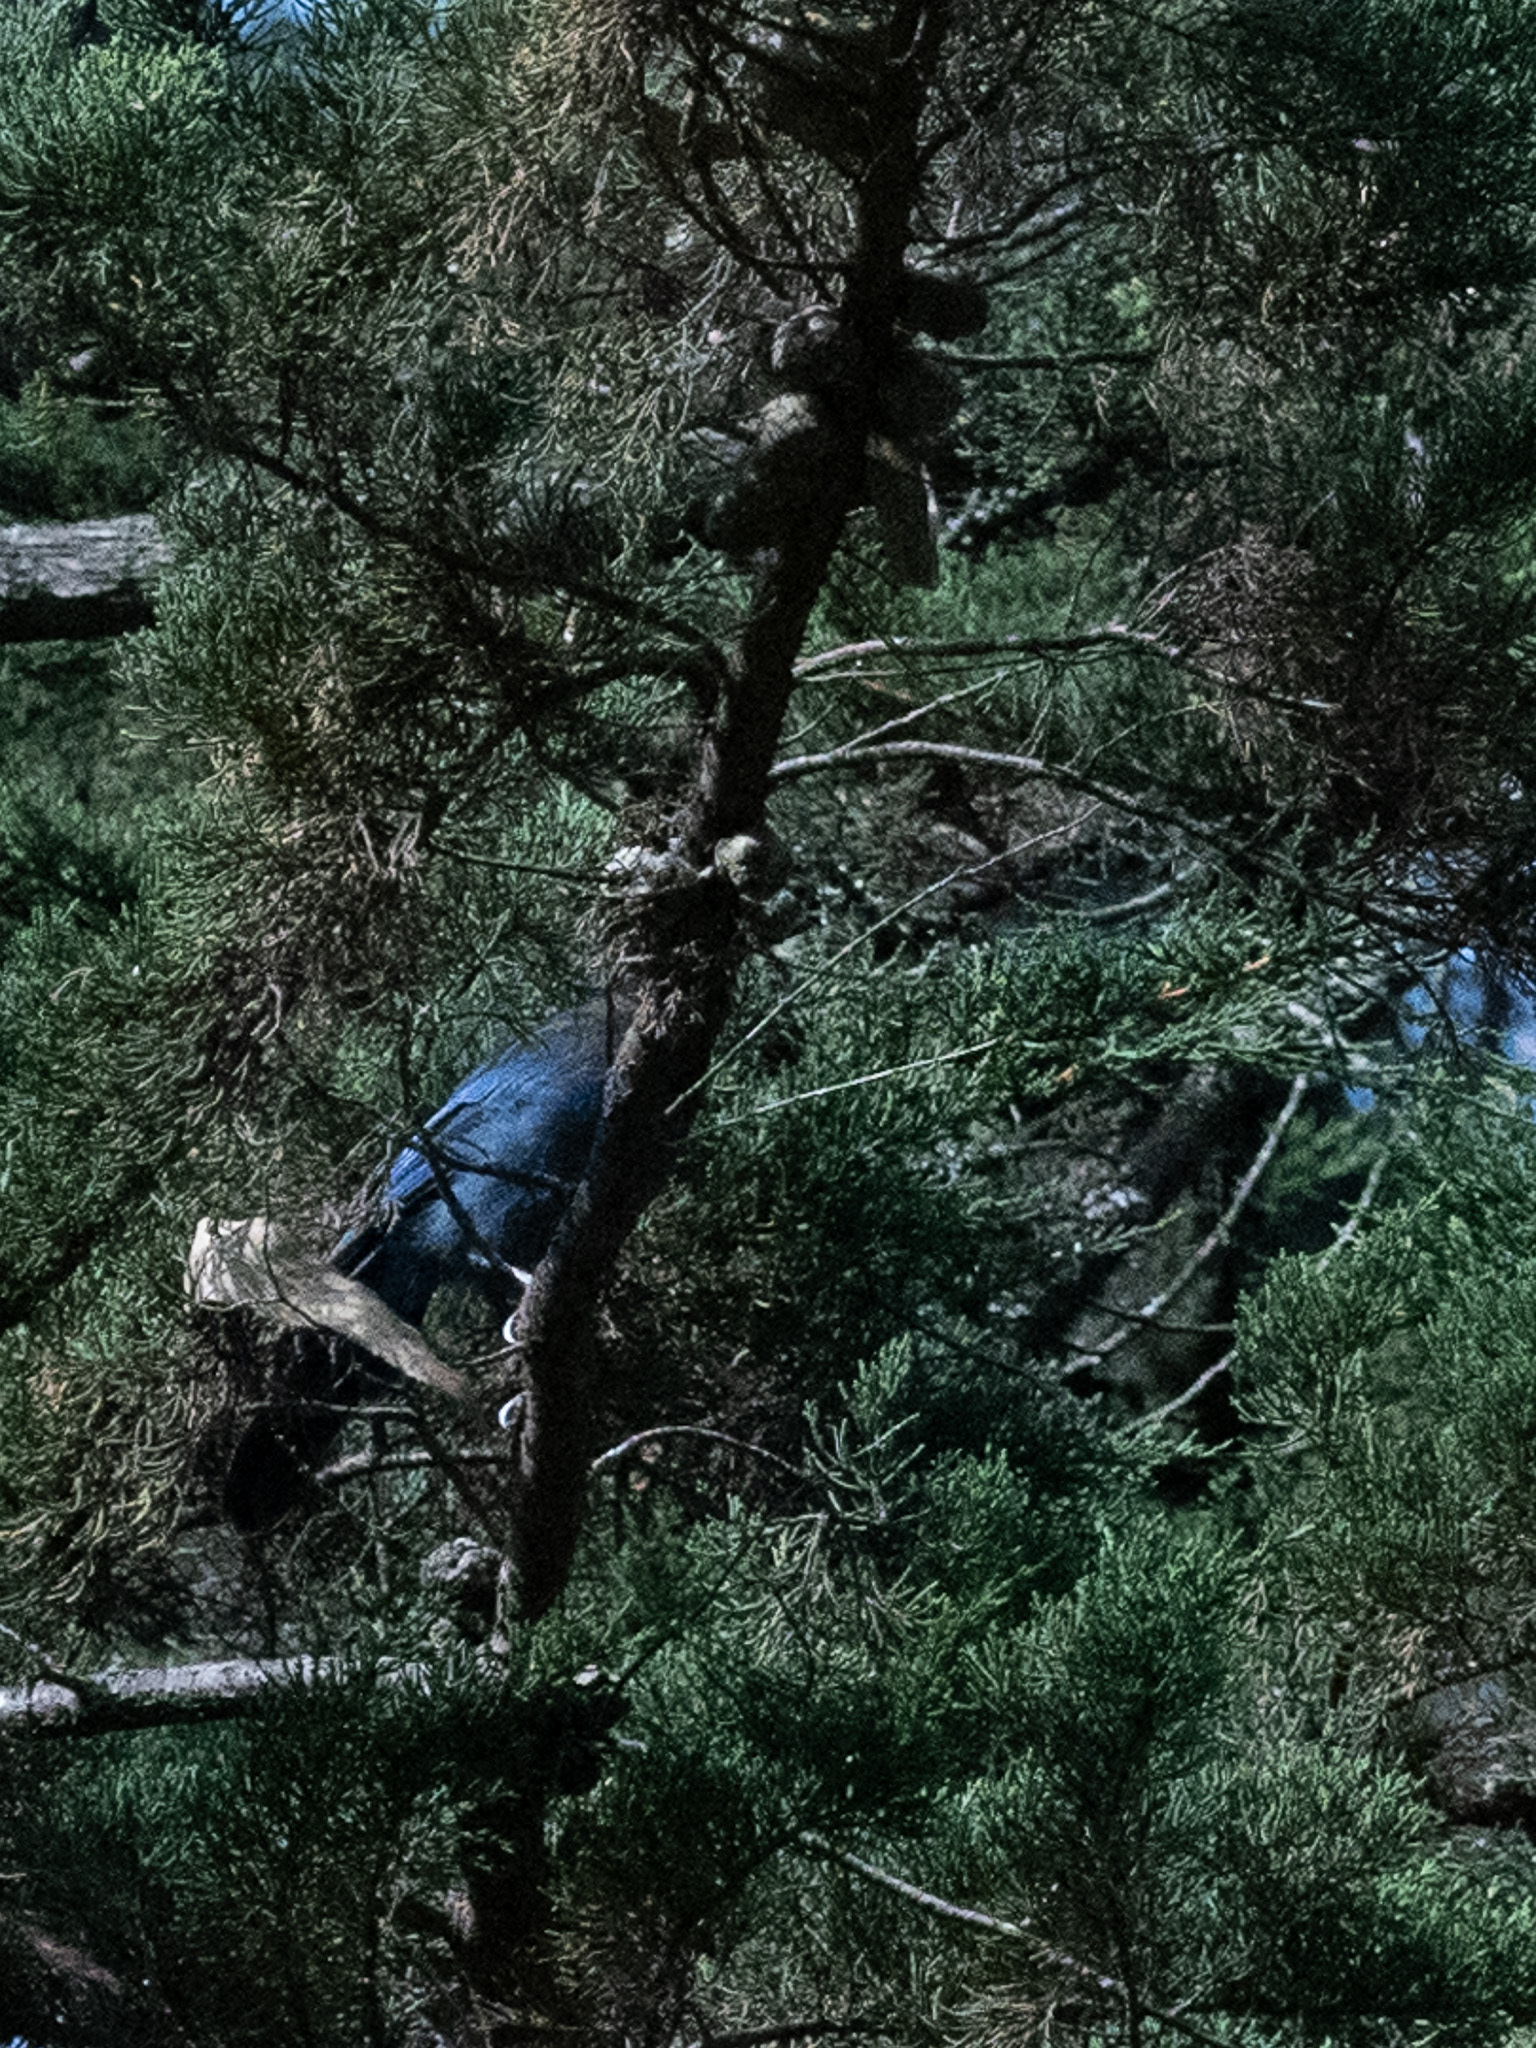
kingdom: Animalia
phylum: Chordata
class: Aves
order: Passeriformes
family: Corvidae
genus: Cyanocitta
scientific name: Cyanocitta stelleri
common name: Steller's jay
